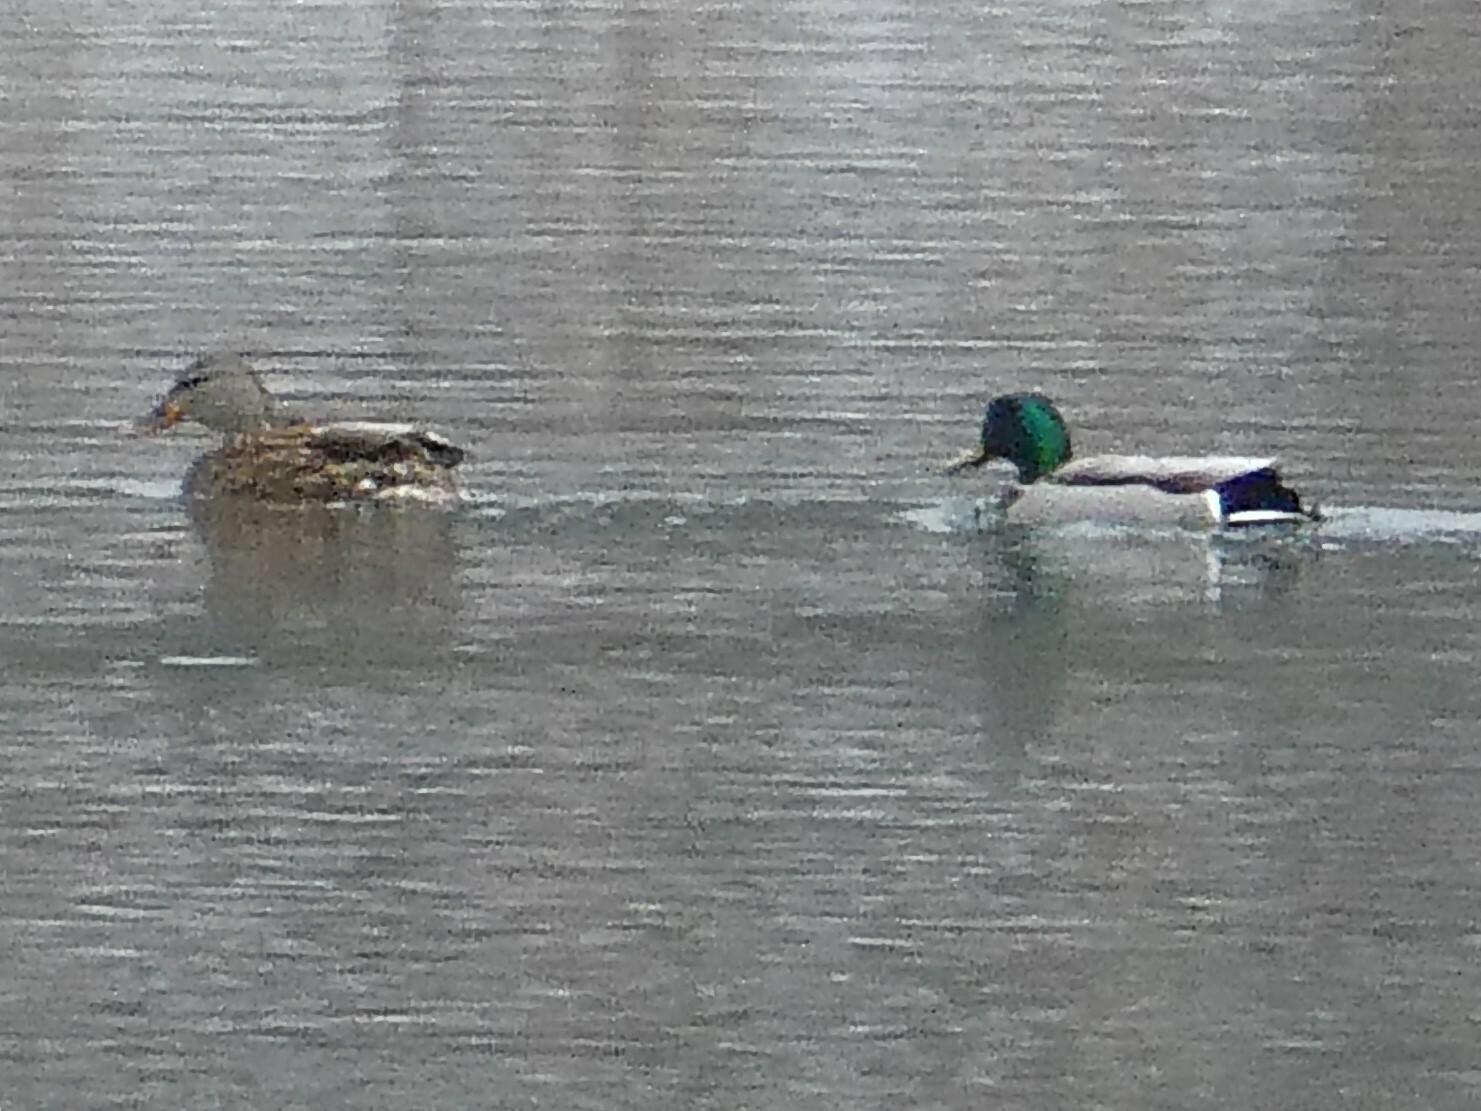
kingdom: Animalia
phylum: Chordata
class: Aves
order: Anseriformes
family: Anatidae
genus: Anas
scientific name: Anas platyrhynchos
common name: Mallard
